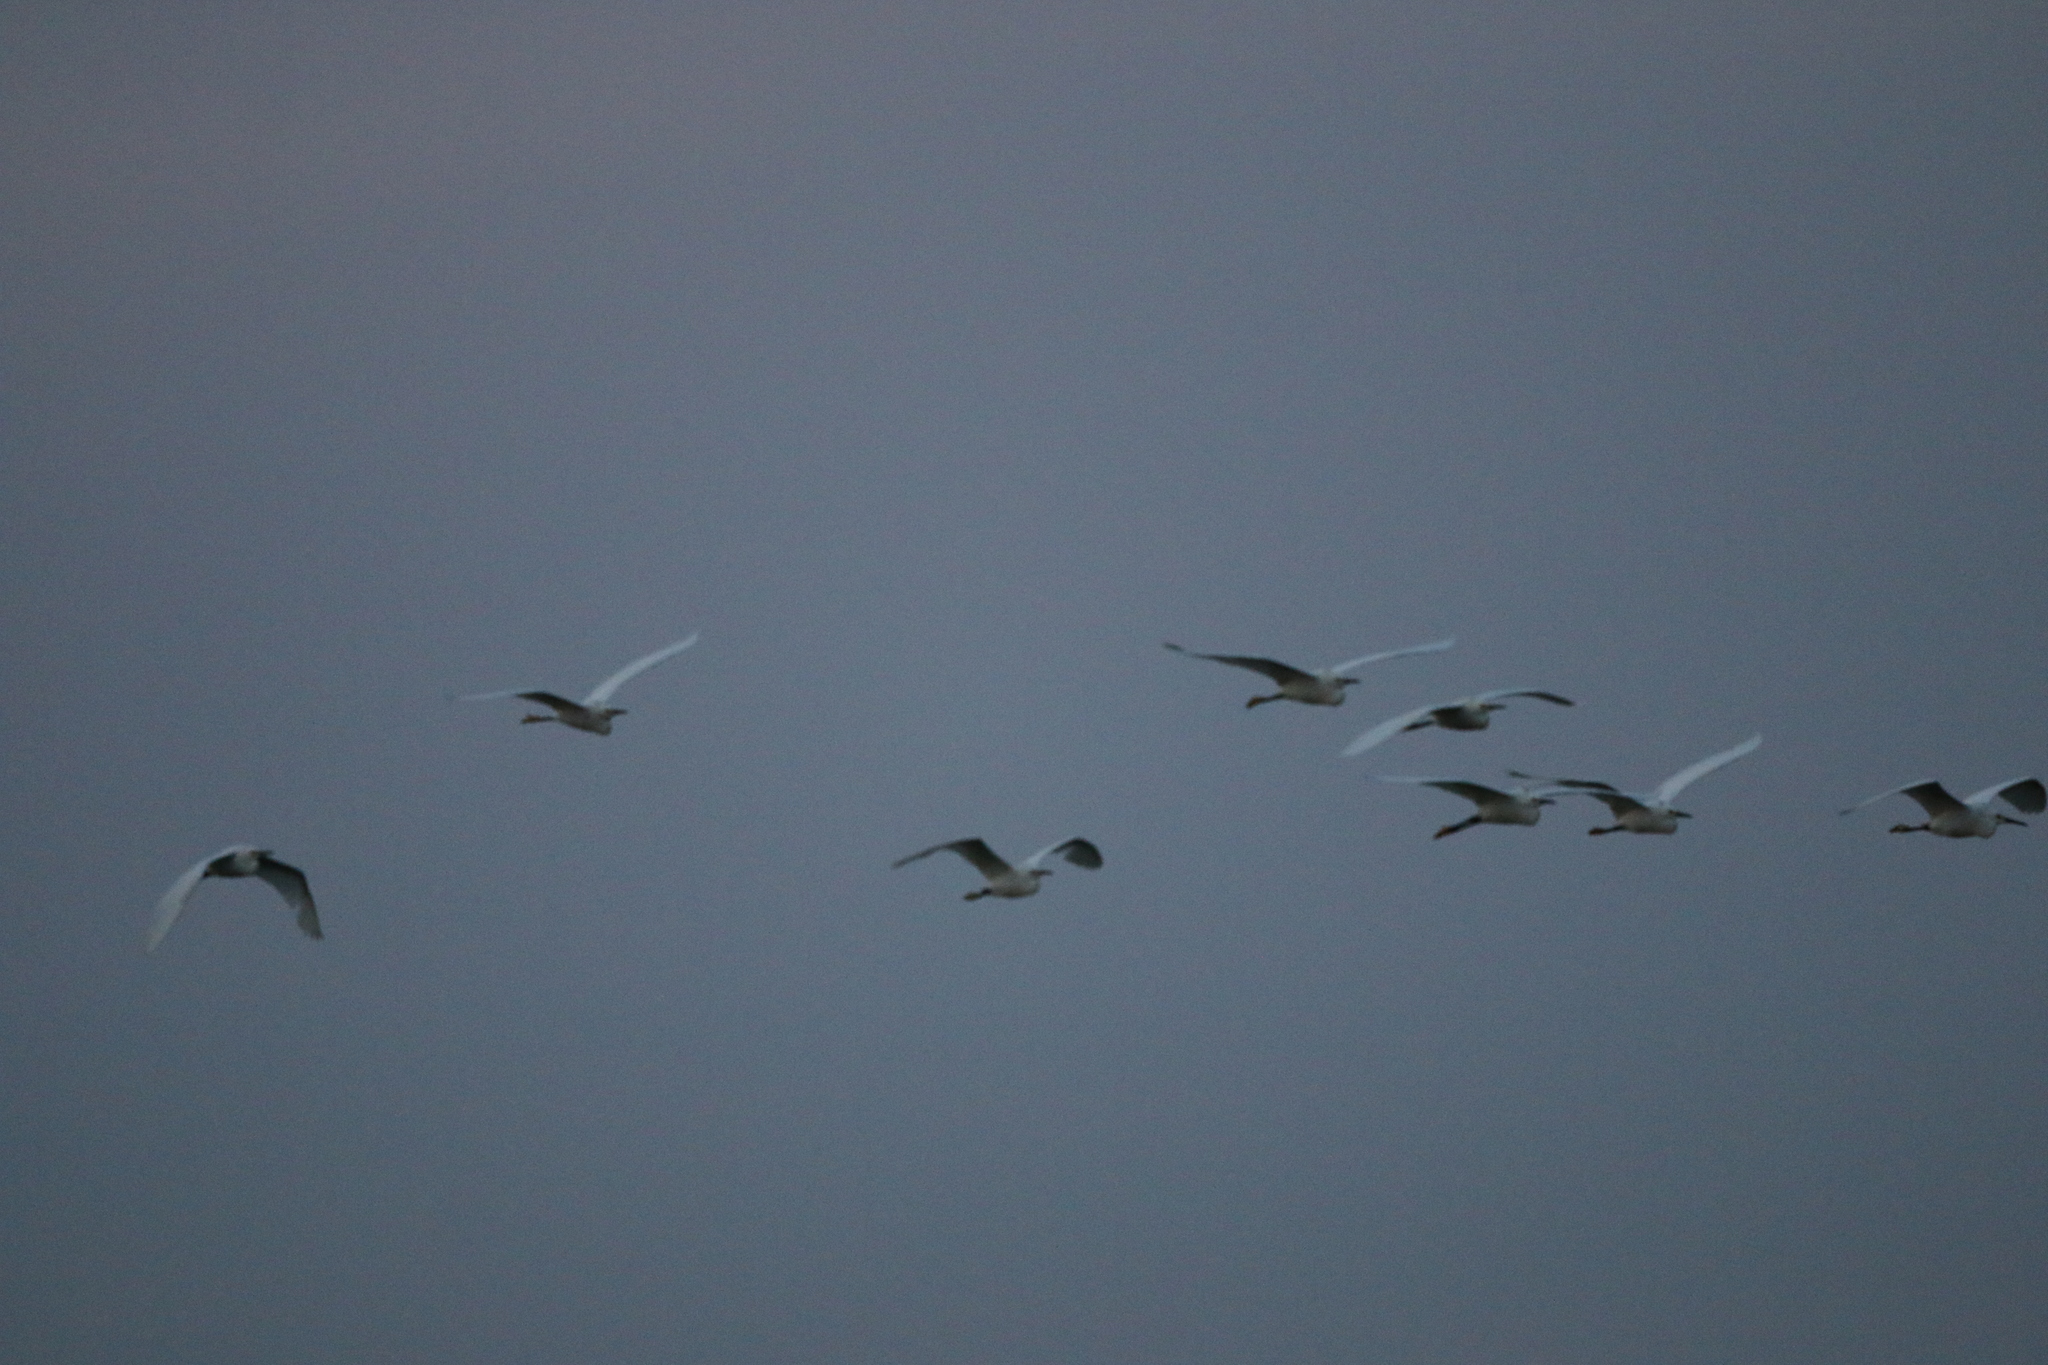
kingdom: Animalia
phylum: Chordata
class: Aves
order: Pelecaniformes
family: Ardeidae
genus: Egretta
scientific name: Egretta thula
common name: Snowy egret
